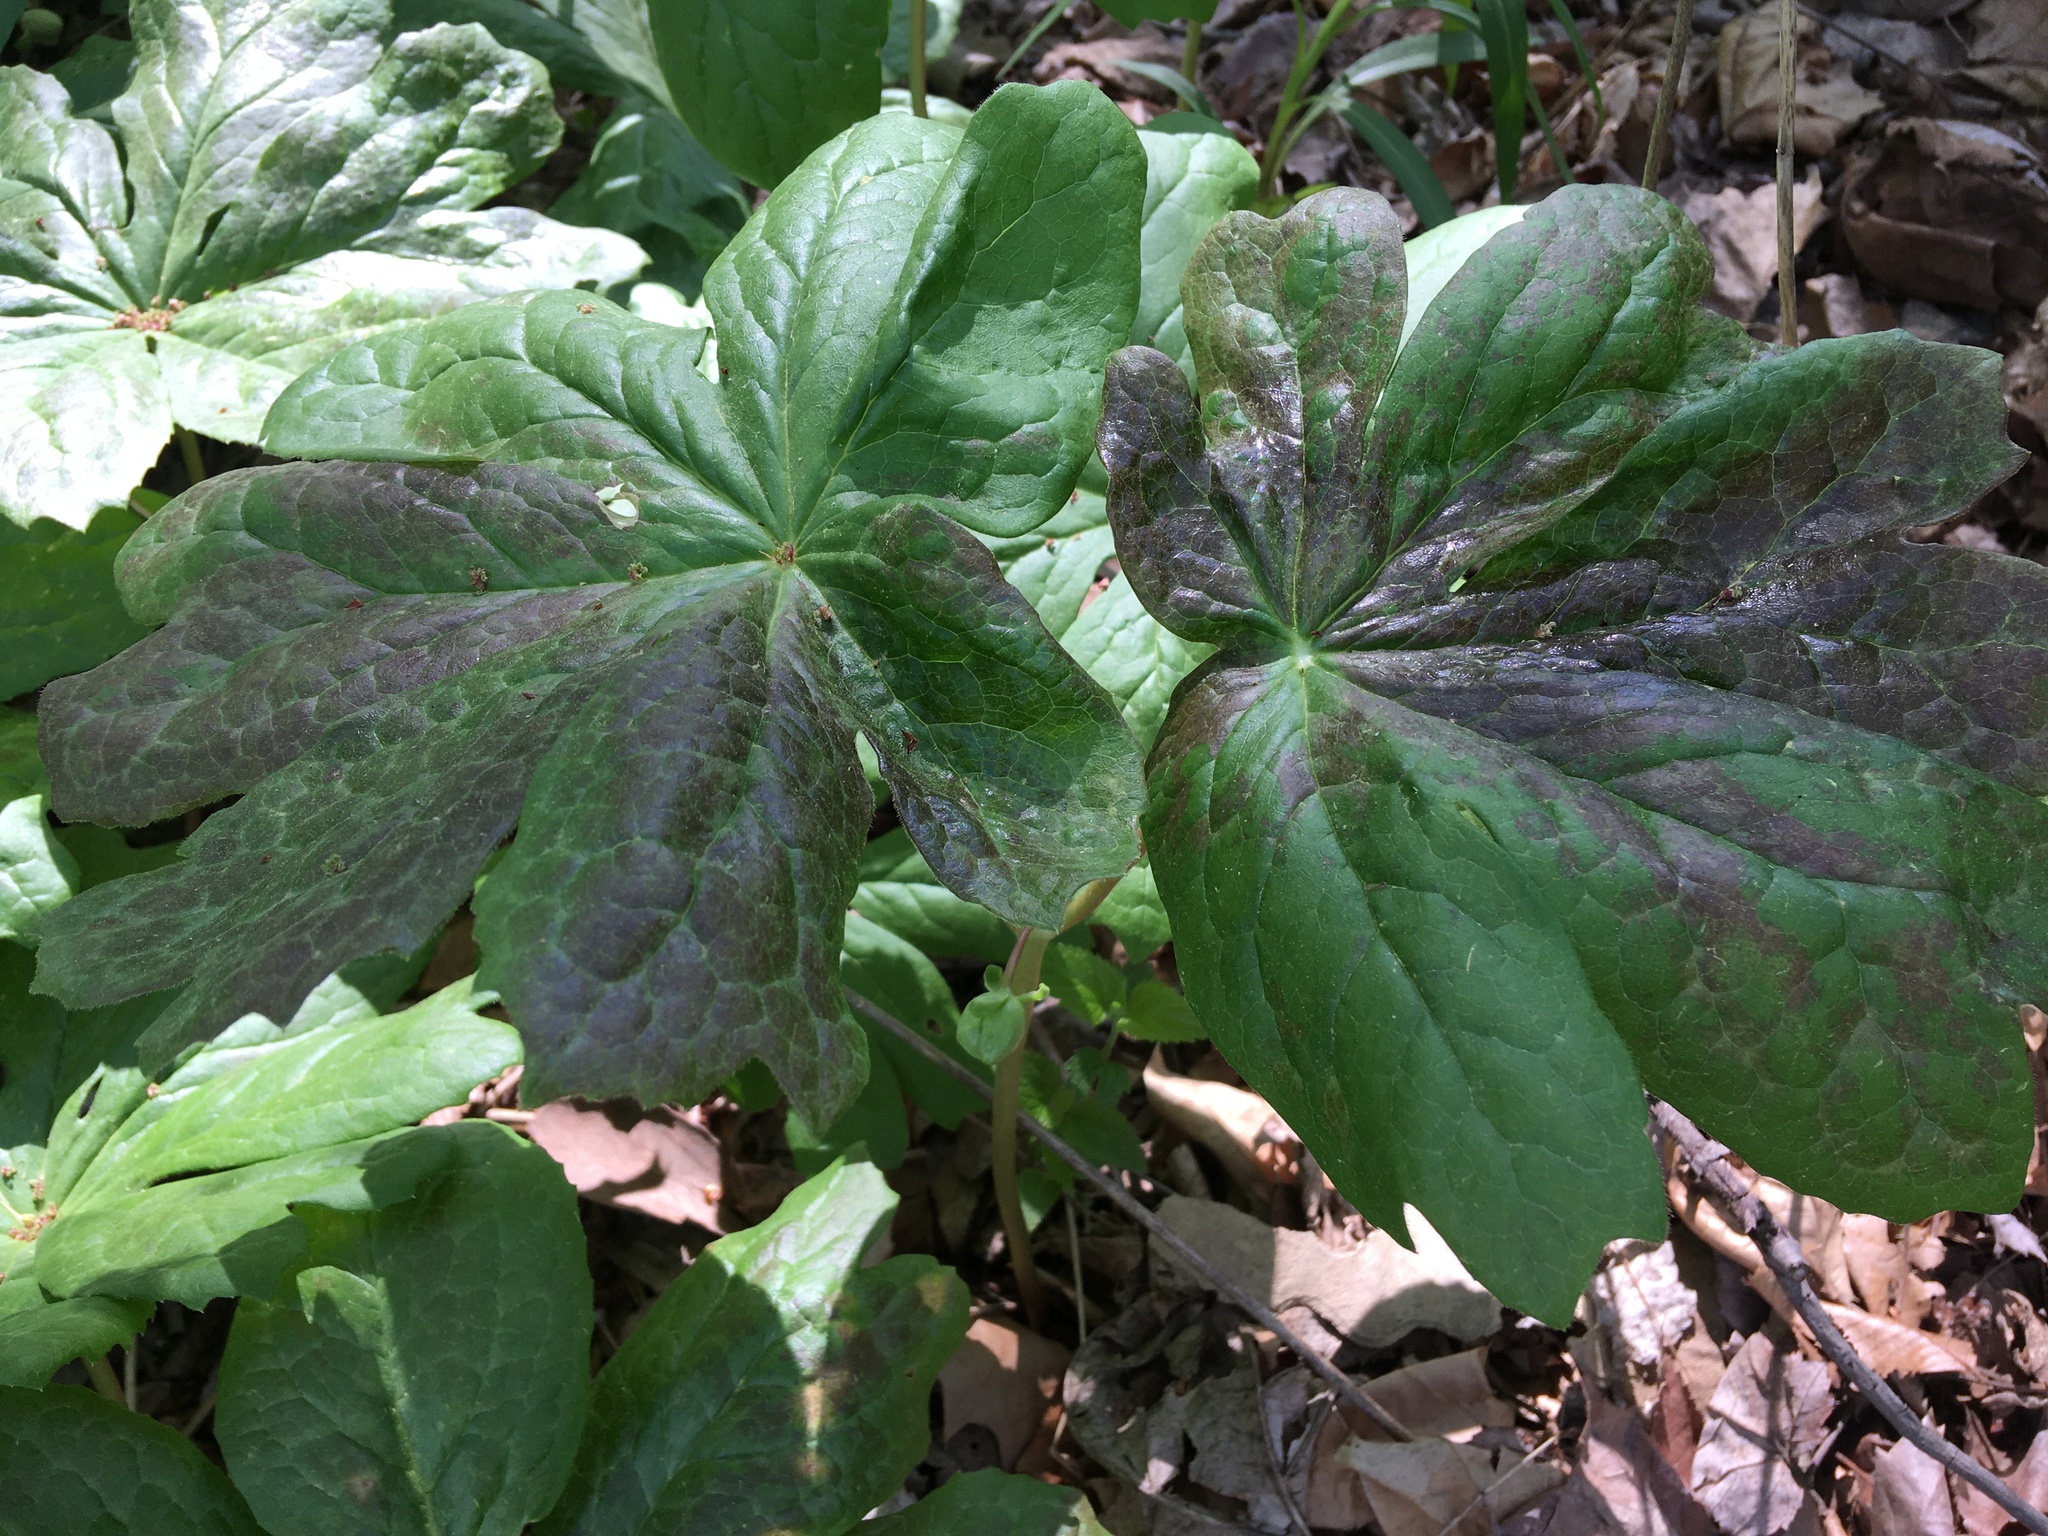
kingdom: Plantae
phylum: Tracheophyta
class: Magnoliopsida
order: Ranunculales
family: Berberidaceae
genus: Podophyllum
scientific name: Podophyllum peltatum
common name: Wild mandrake
